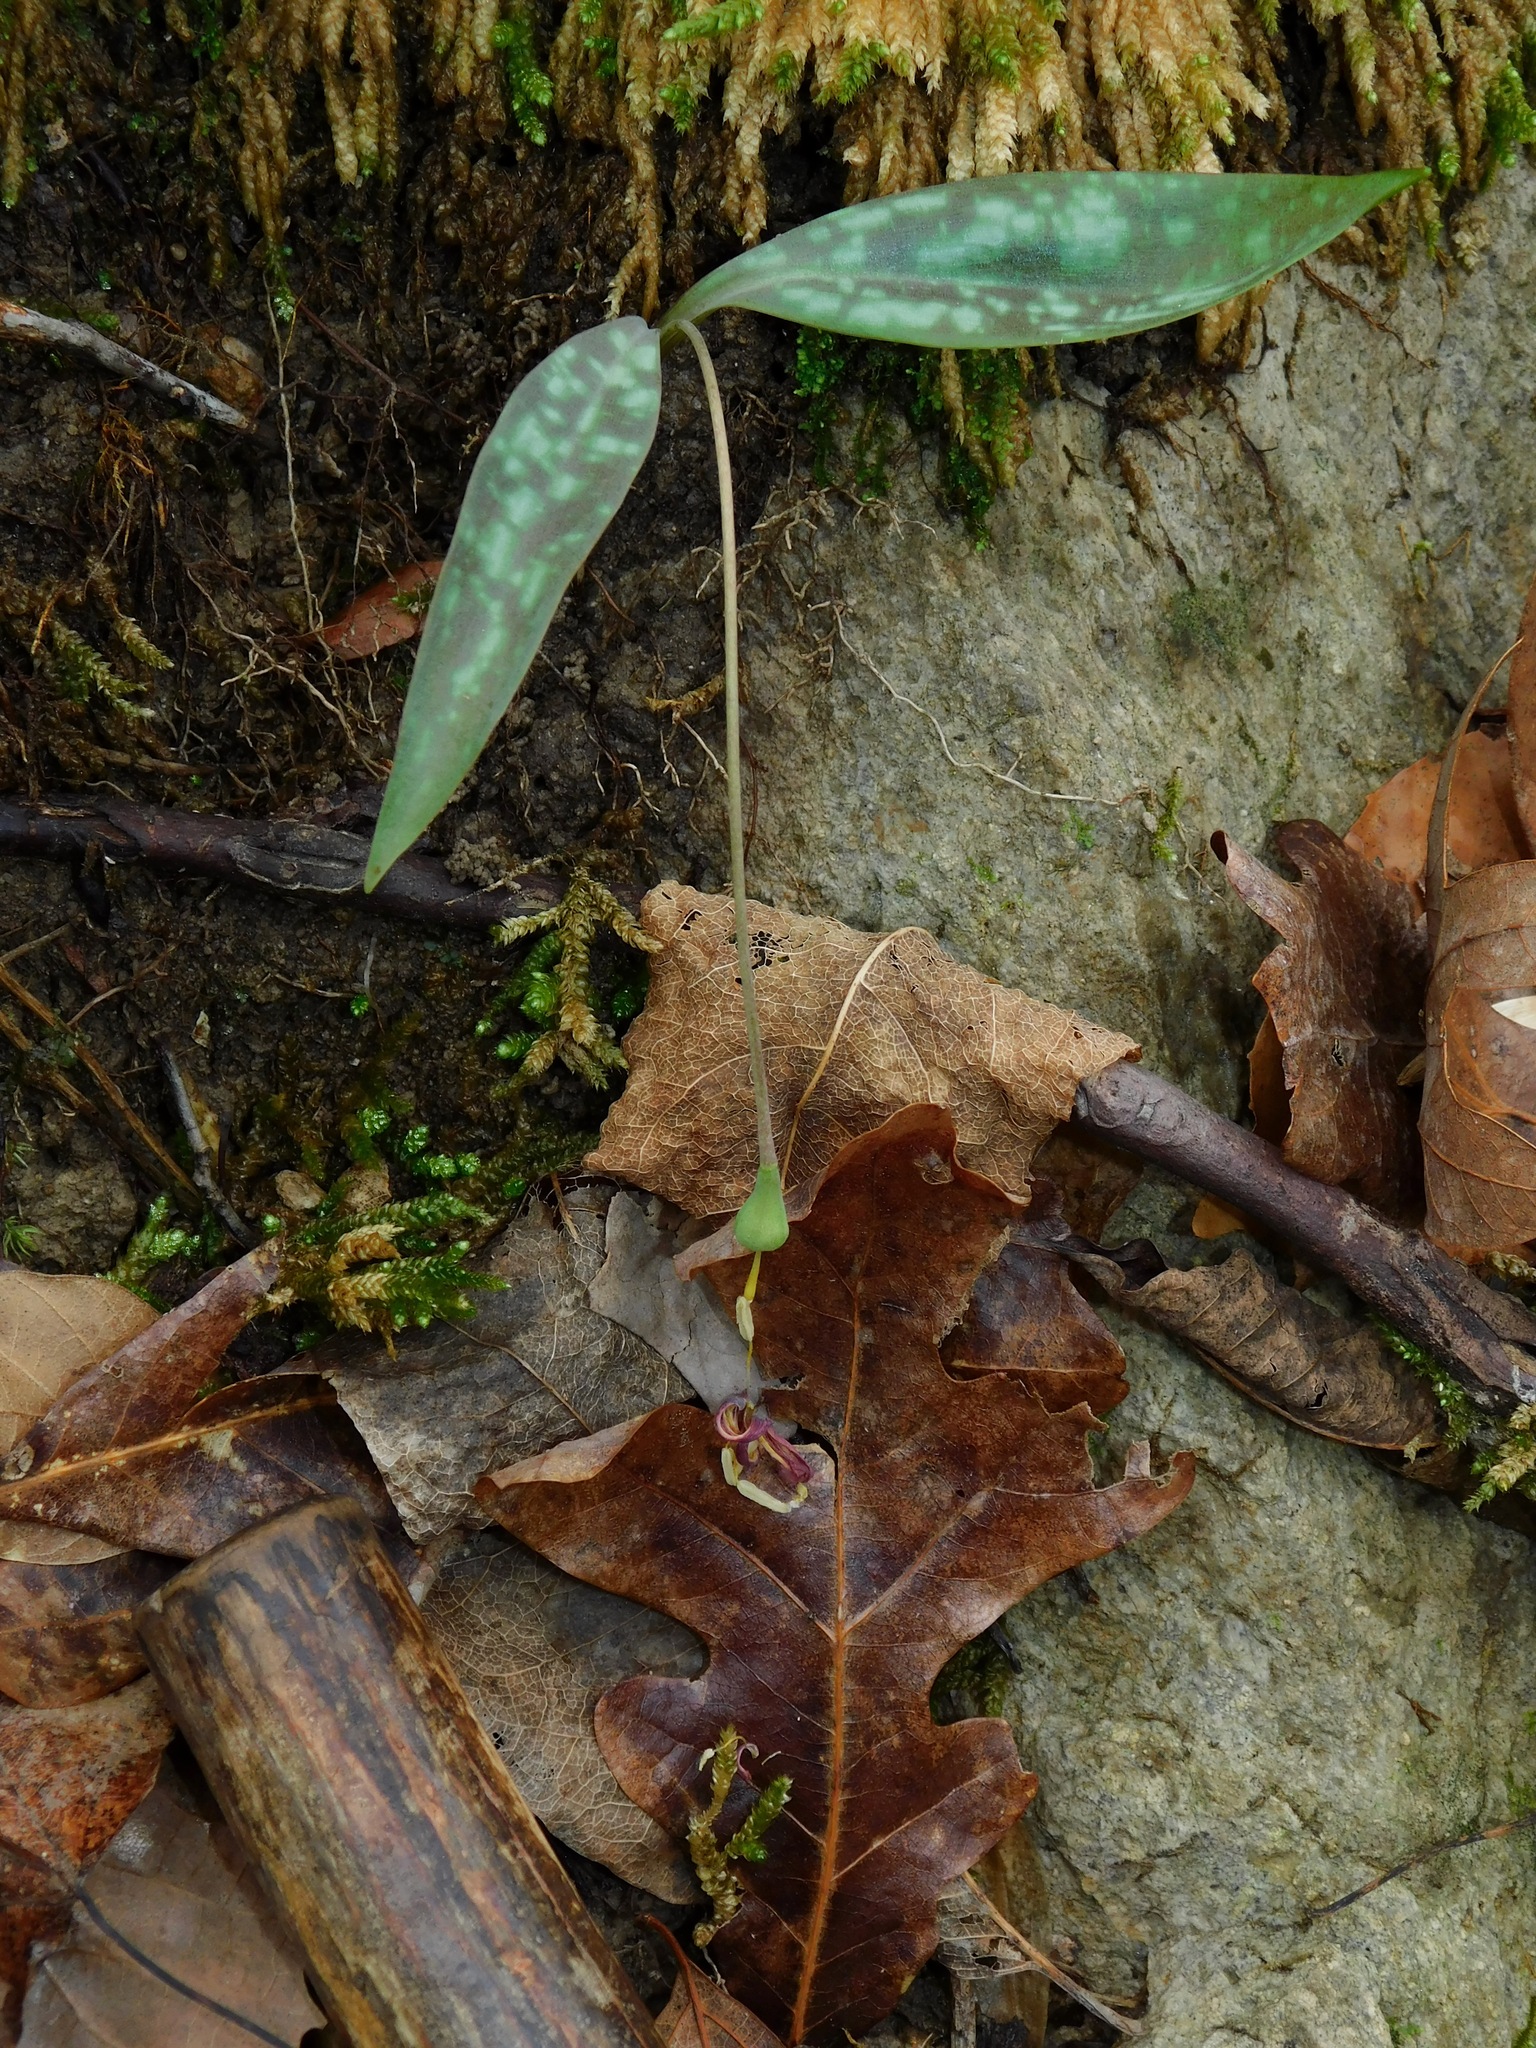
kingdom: Plantae
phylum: Tracheophyta
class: Liliopsida
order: Liliales
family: Liliaceae
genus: Erythronium
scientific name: Erythronium umbilicatum
